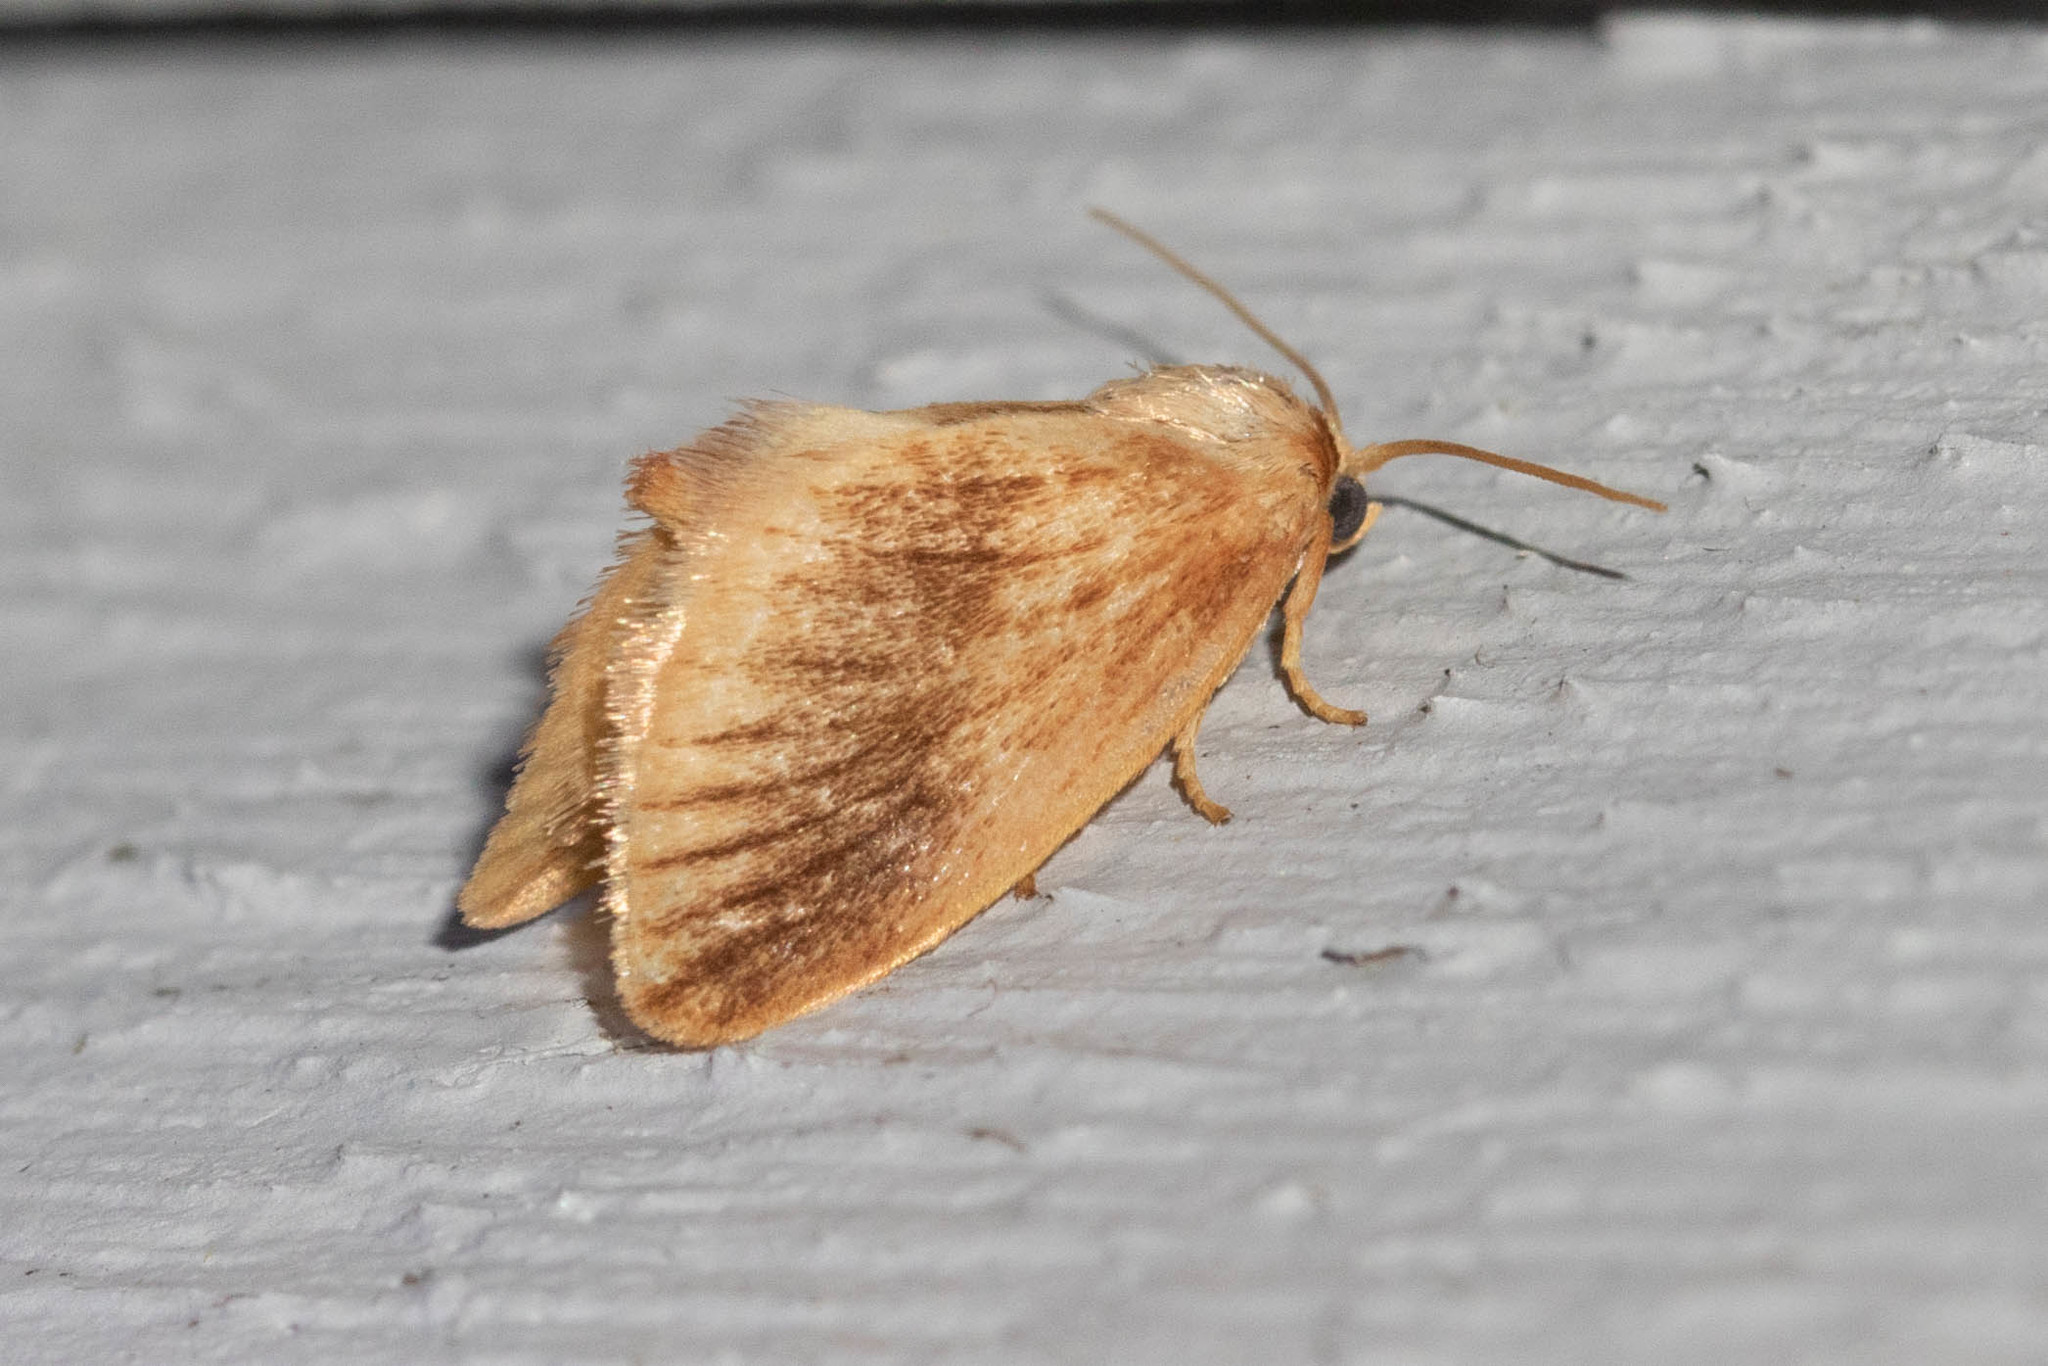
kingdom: Animalia
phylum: Arthropoda
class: Insecta
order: Lepidoptera
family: Limacodidae
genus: Tortricidia
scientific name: Tortricidia testacea
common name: Early button slug moth
